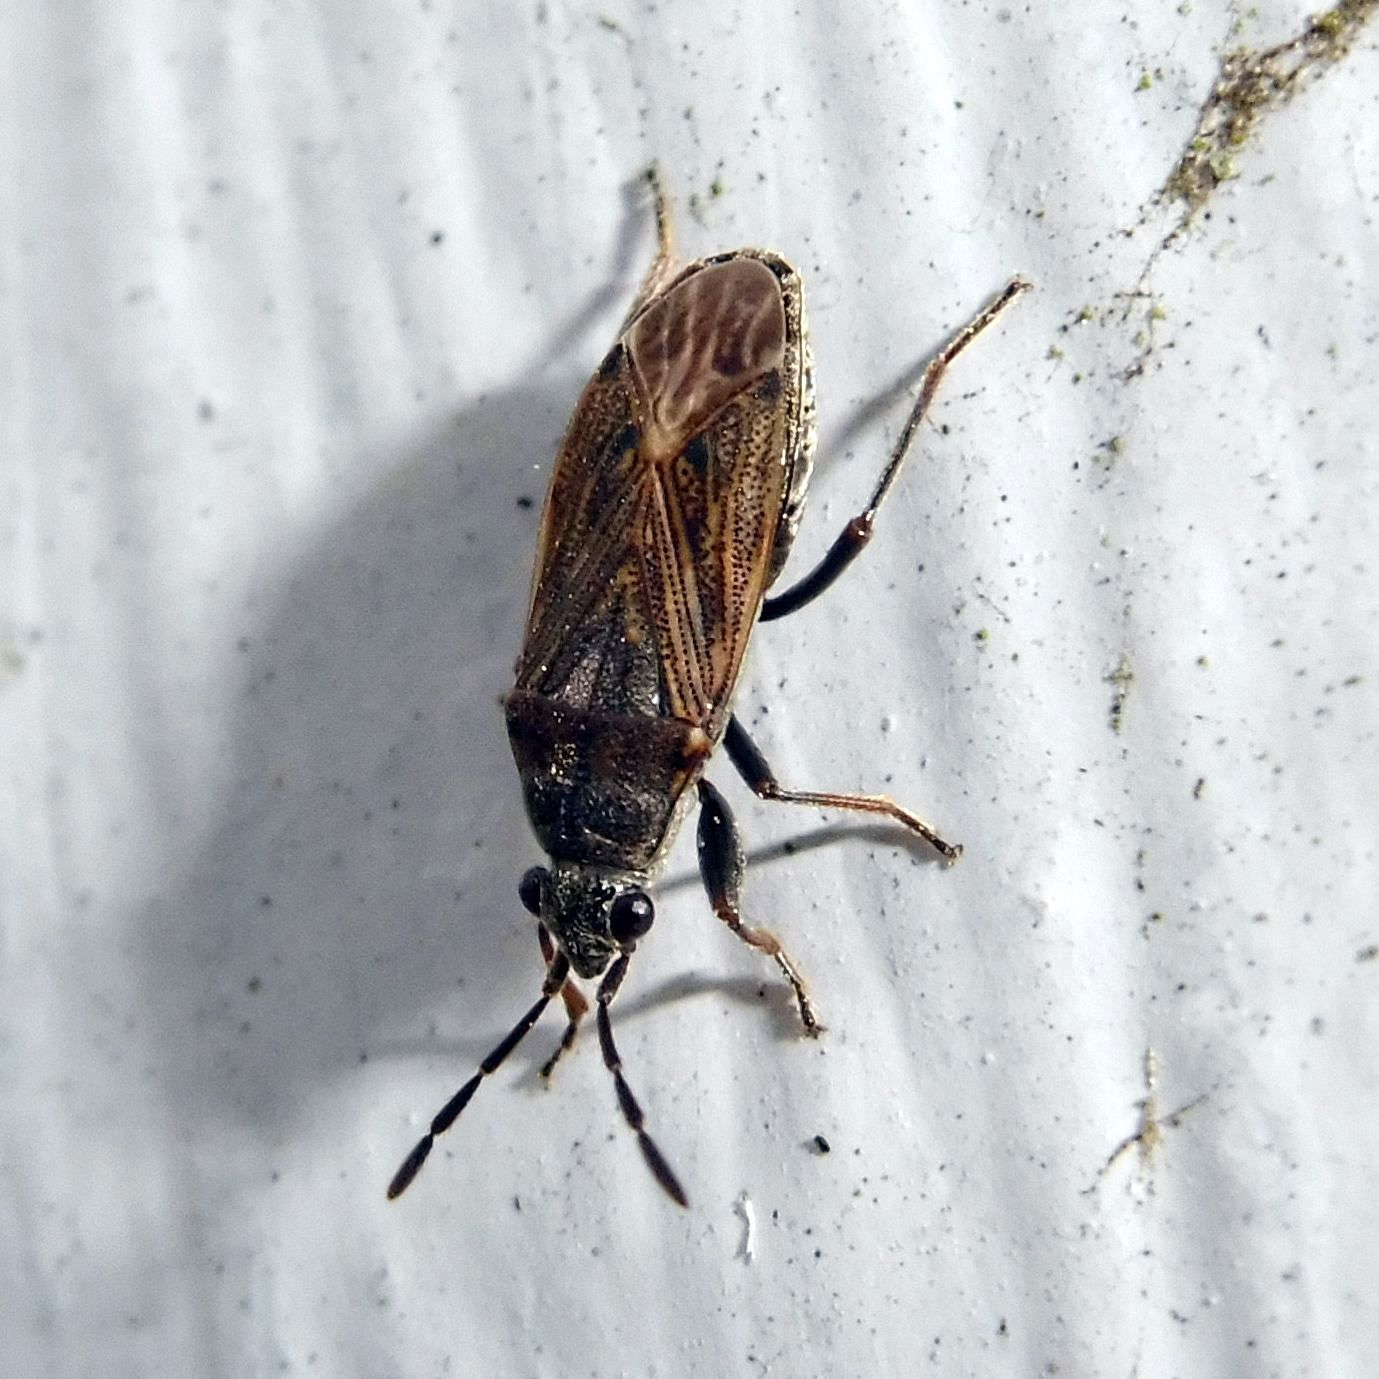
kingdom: Animalia
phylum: Arthropoda
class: Insecta
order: Hemiptera
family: Rhyparochromidae
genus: Peritrechus
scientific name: Peritrechus geniculatus
